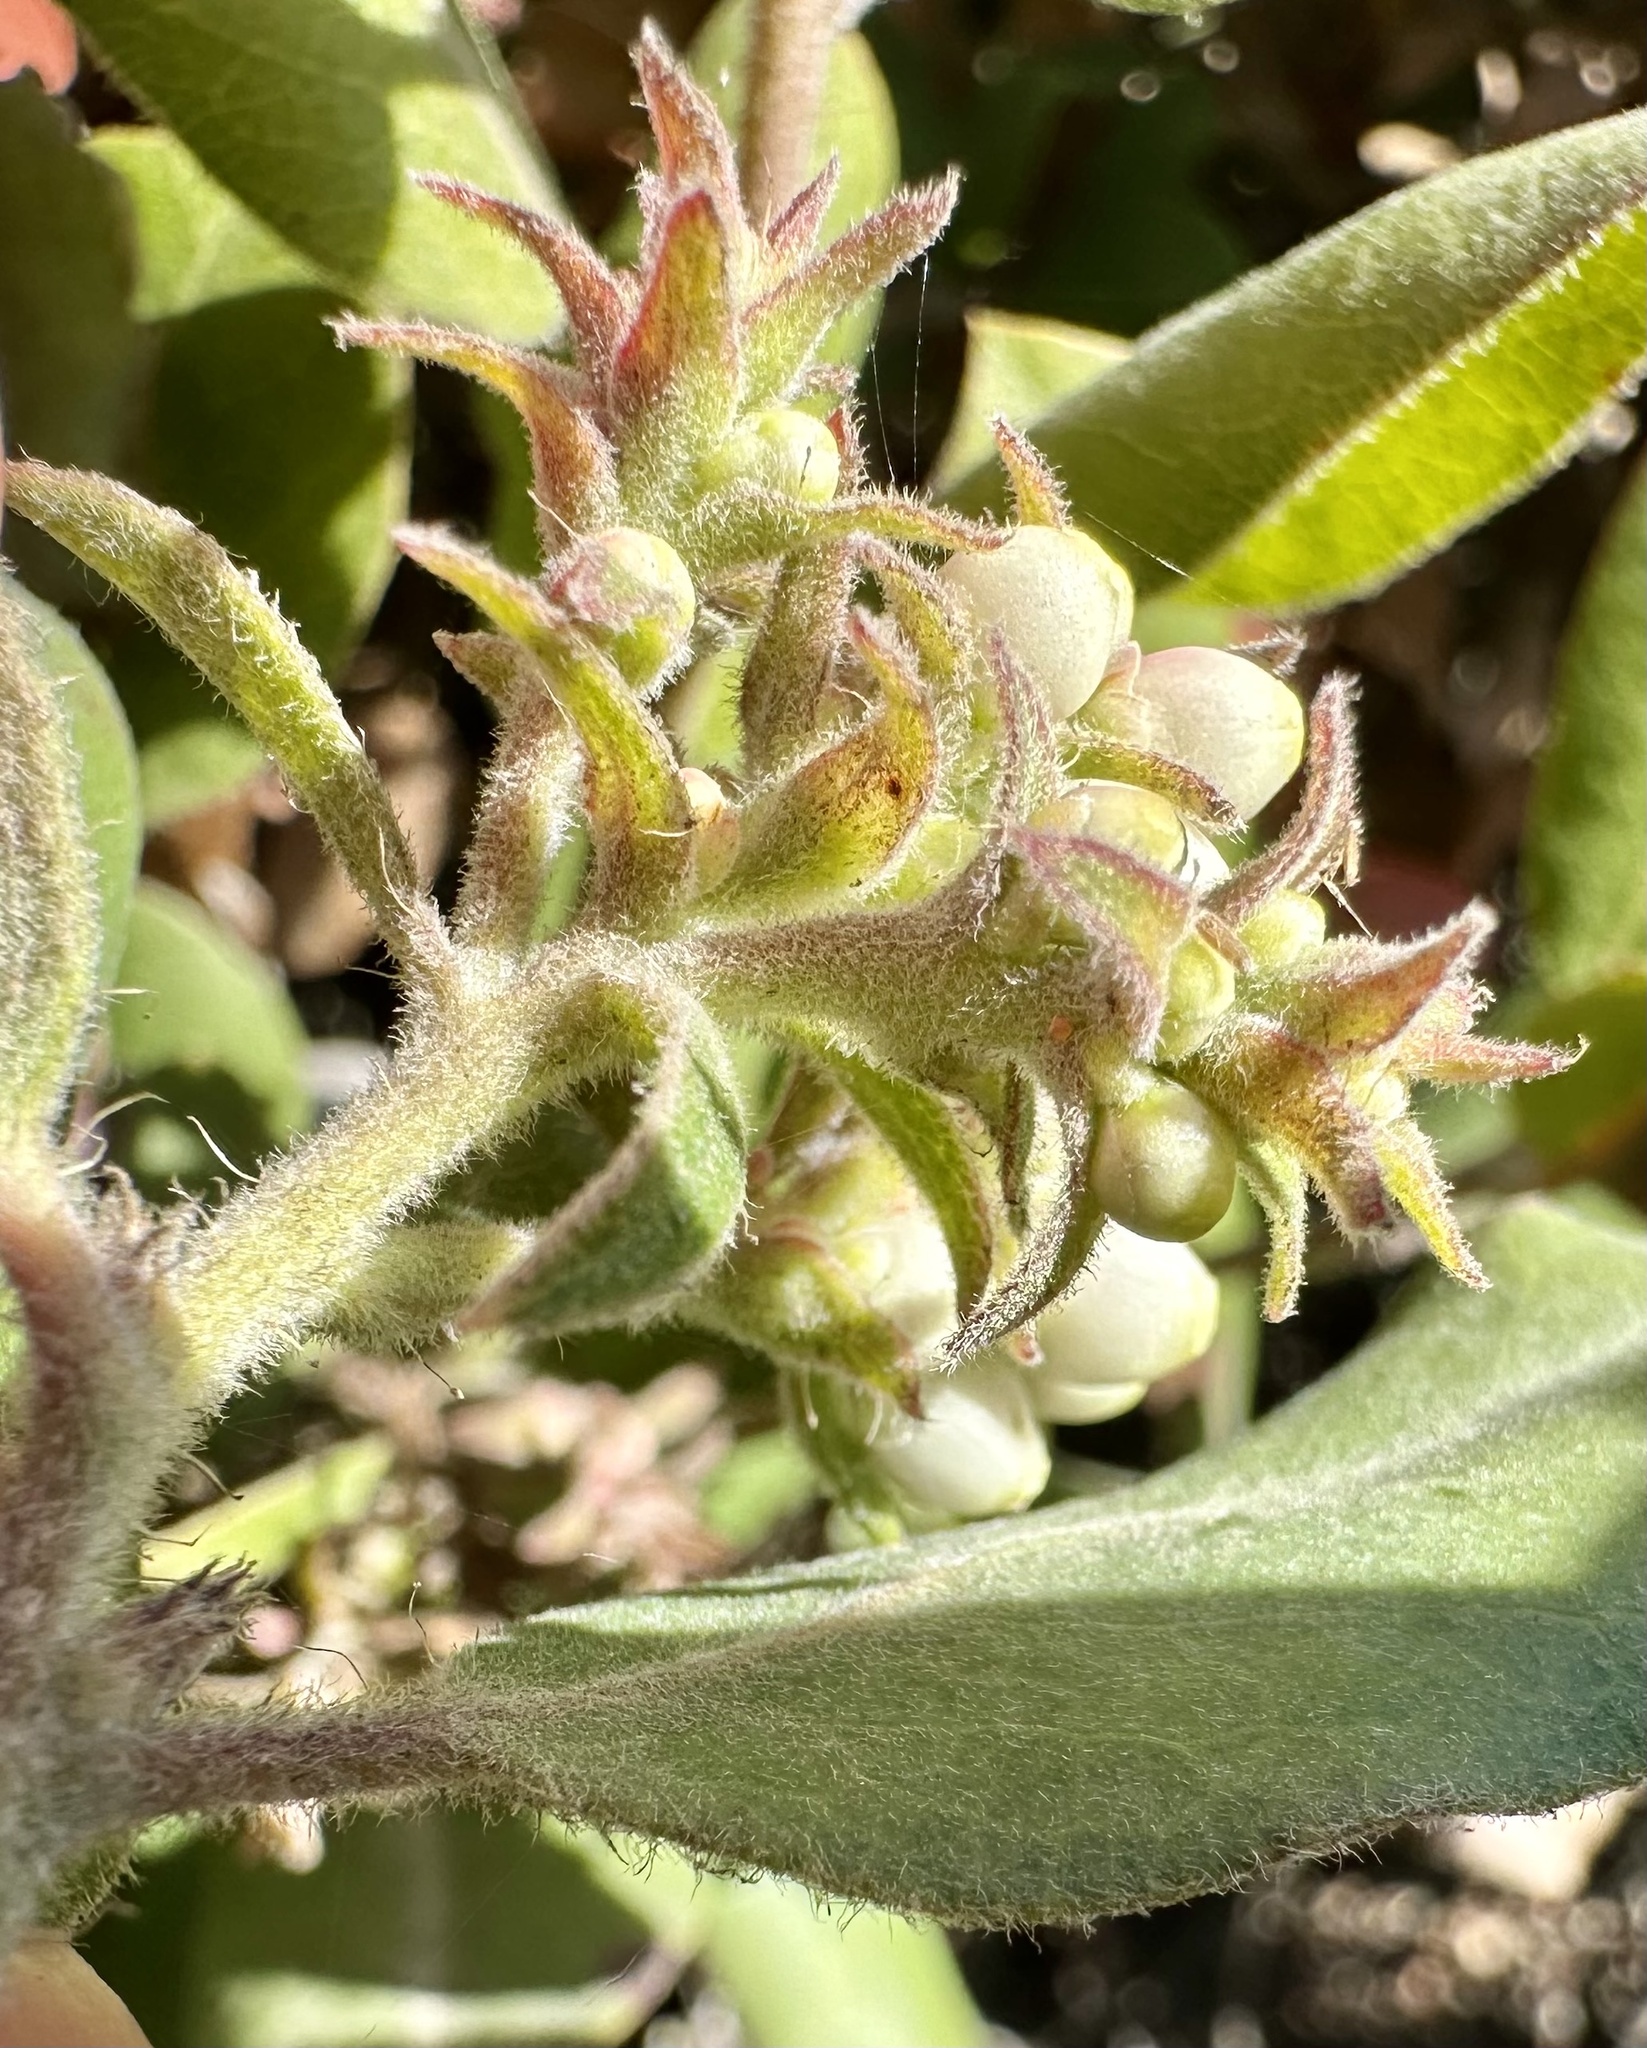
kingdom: Plantae
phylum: Tracheophyta
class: Magnoliopsida
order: Ericales
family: Ericaceae
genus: Arctostaphylos
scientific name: Arctostaphylos tomentosa
